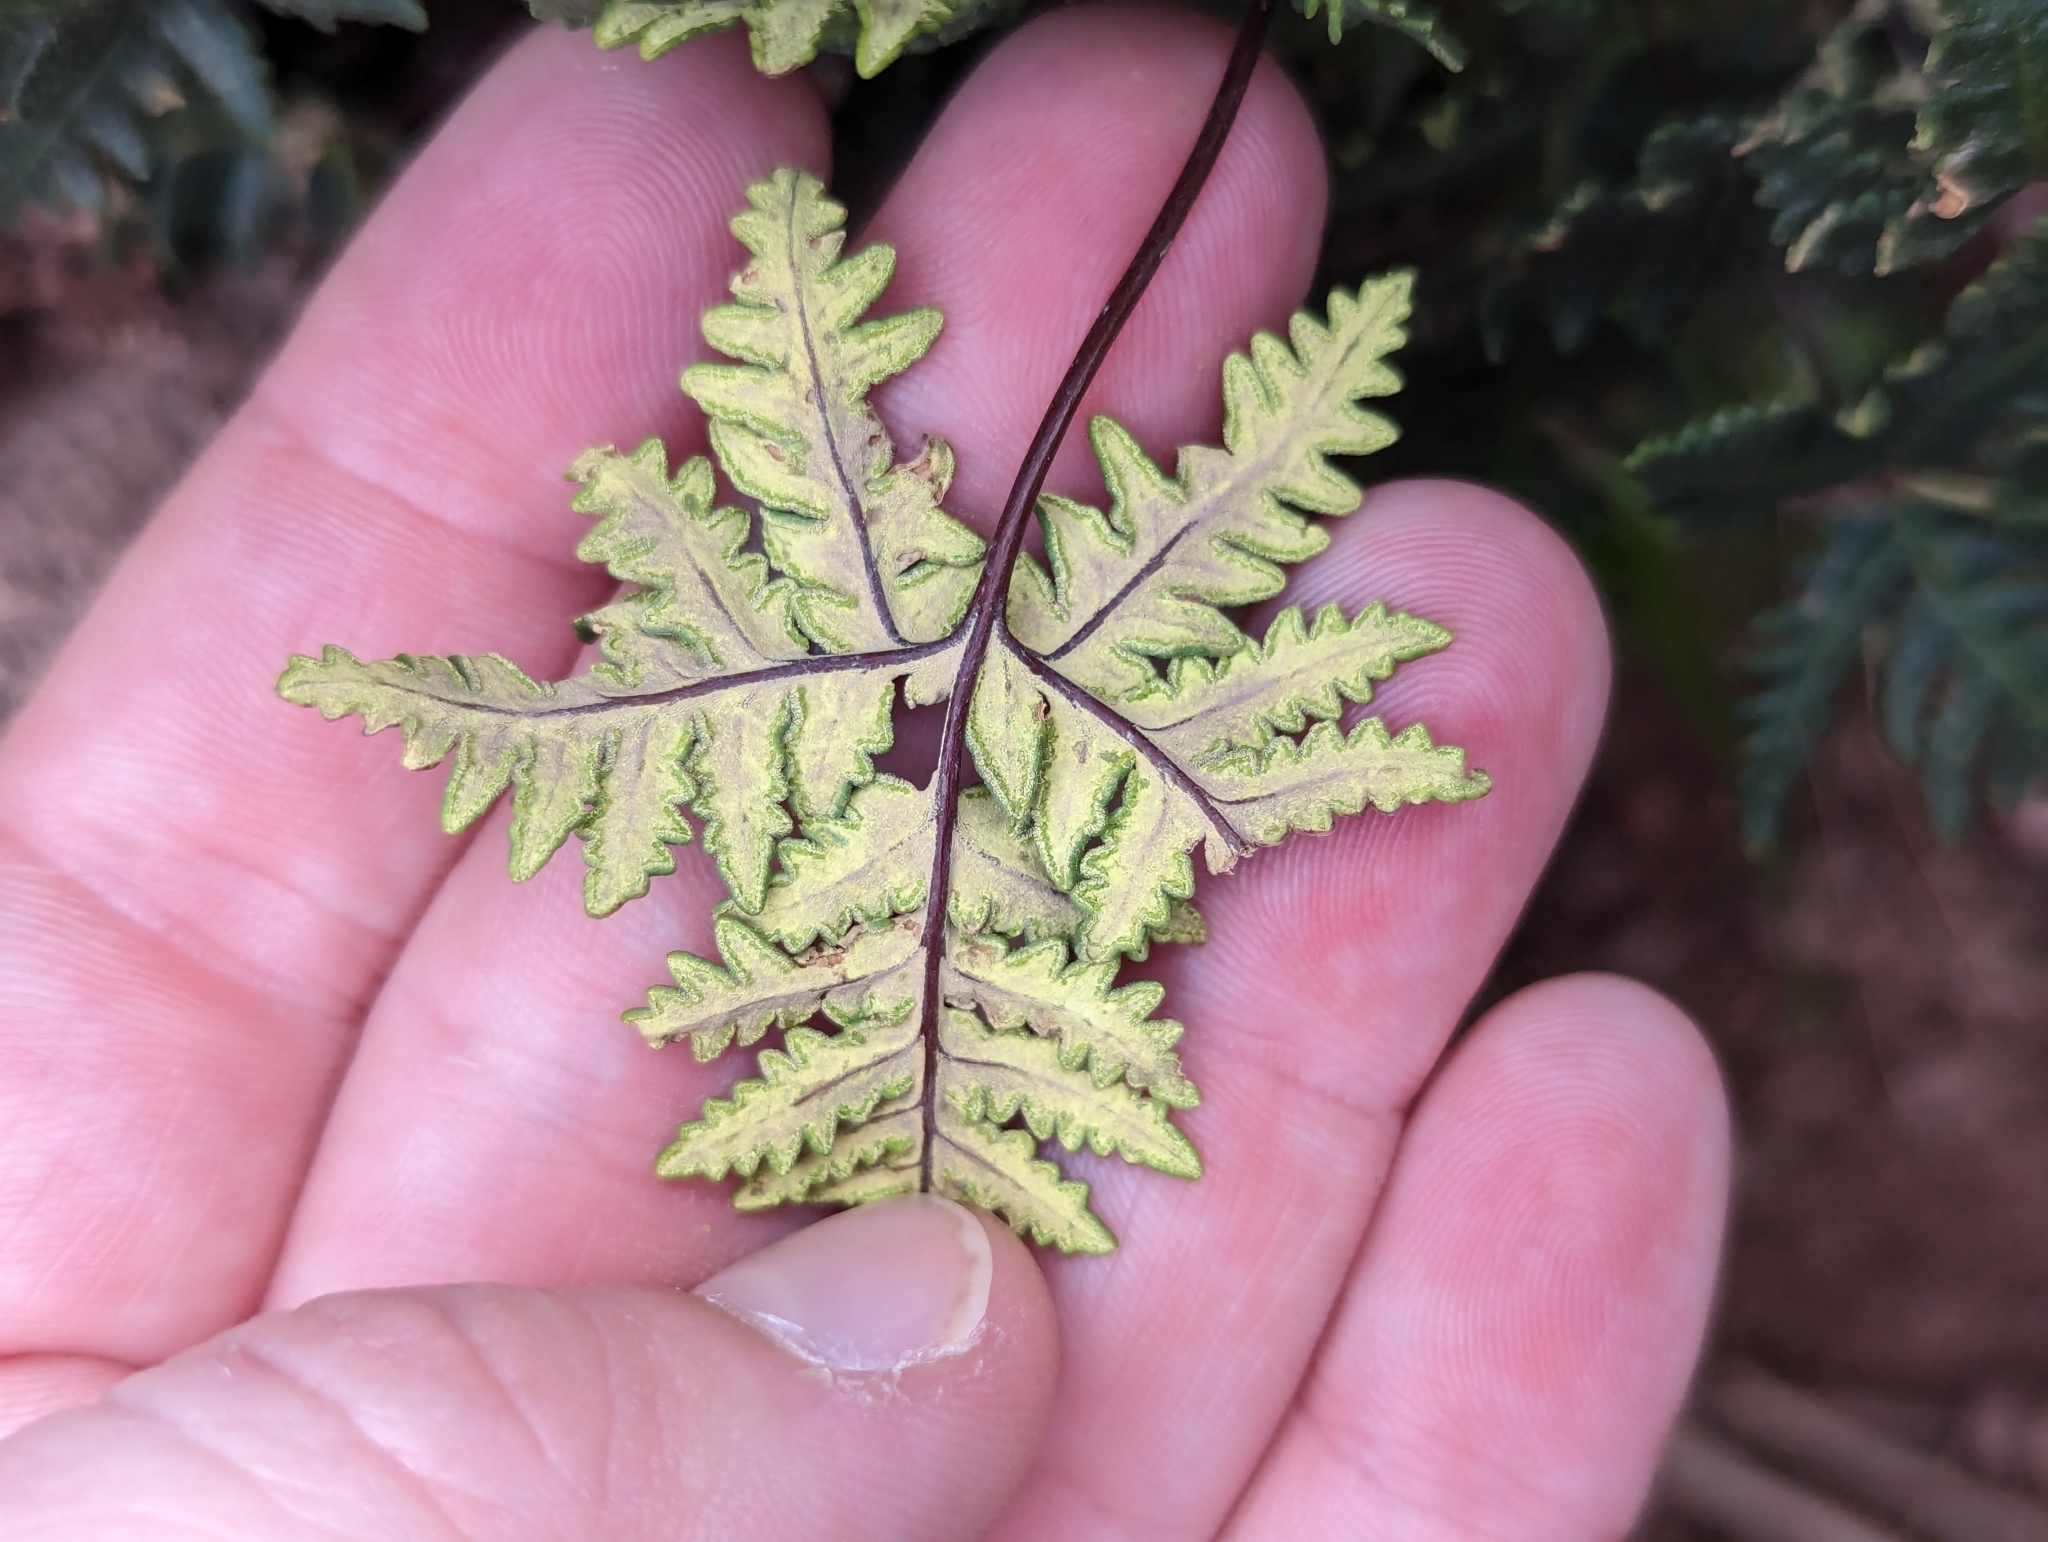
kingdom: Plantae
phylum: Tracheophyta
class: Polypodiopsida
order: Polypodiales
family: Pteridaceae
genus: Notholaena
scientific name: Notholaena standleyi
